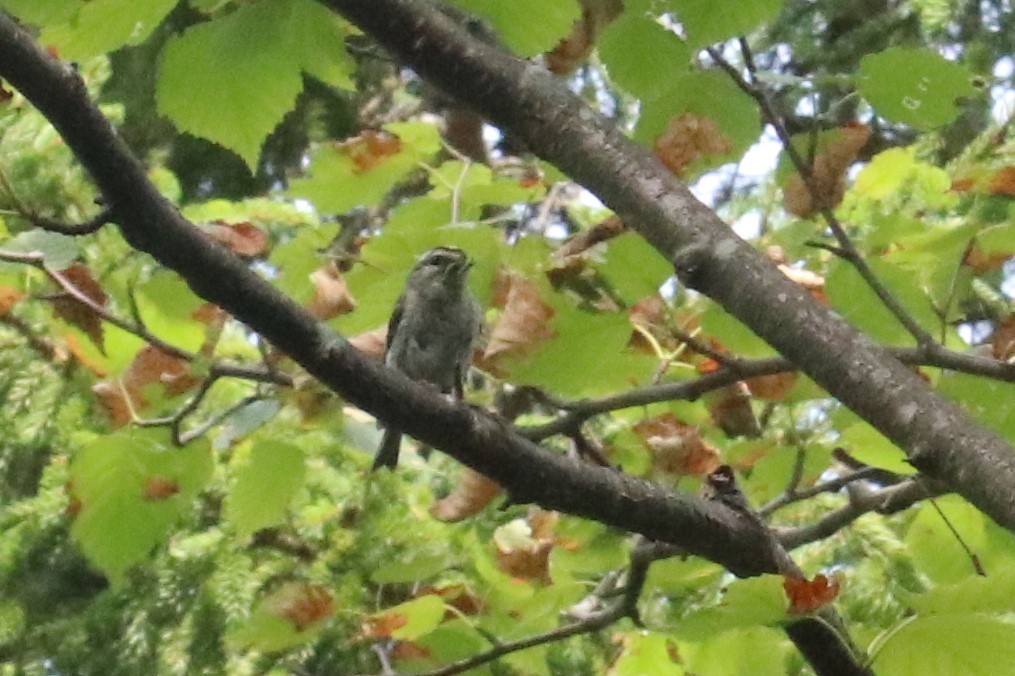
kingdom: Animalia
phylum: Chordata
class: Aves
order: Passeriformes
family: Regulidae
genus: Regulus
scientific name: Regulus satrapa
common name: Golden-crowned kinglet
